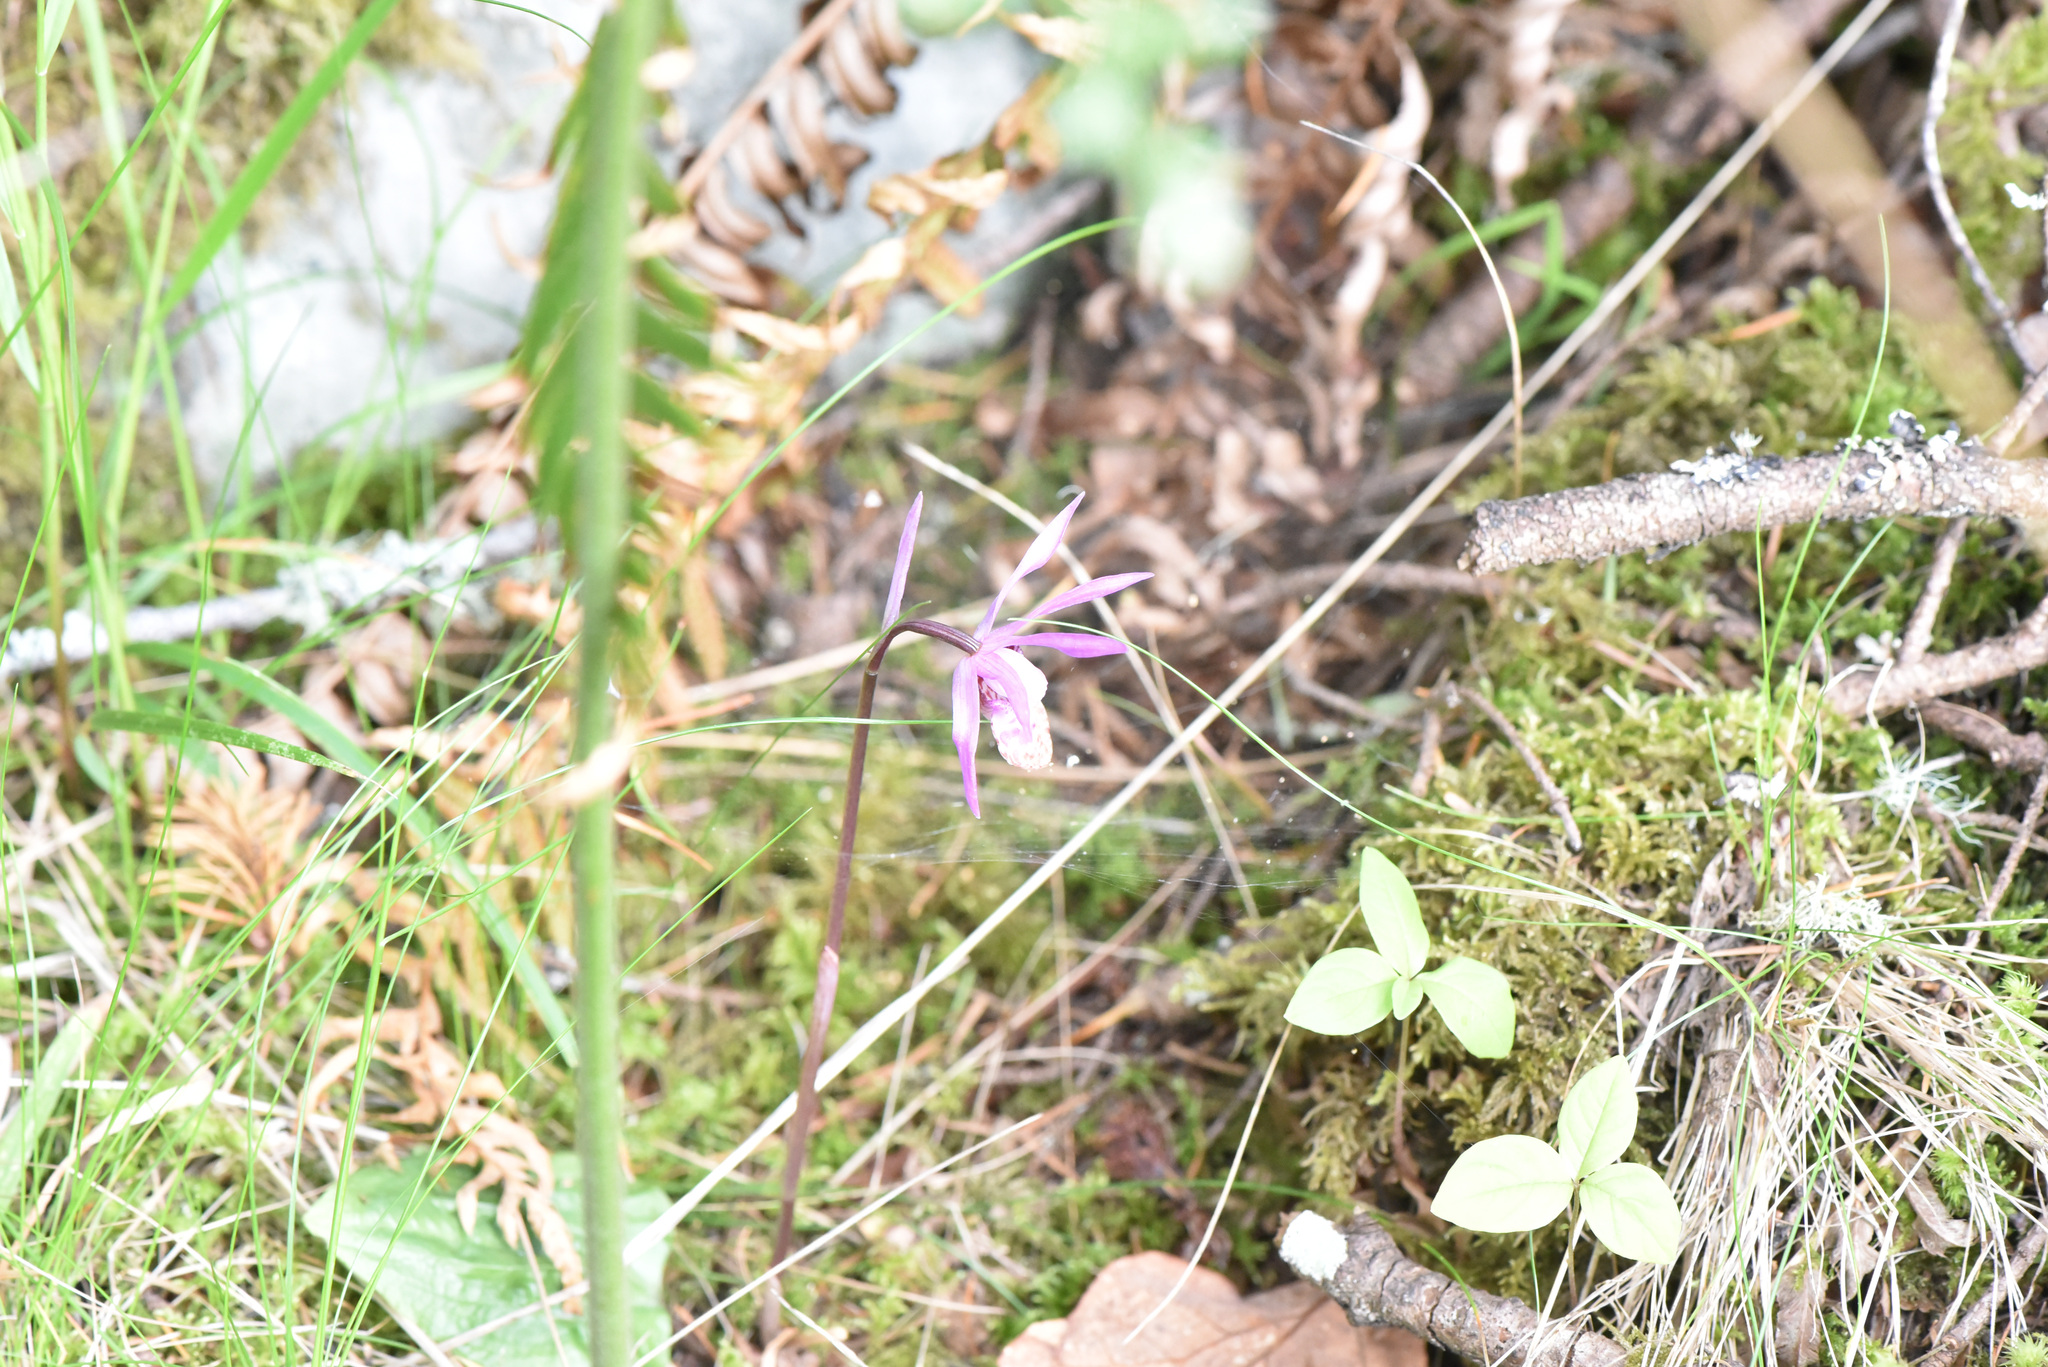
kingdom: Plantae
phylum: Tracheophyta
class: Liliopsida
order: Asparagales
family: Orchidaceae
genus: Calypso
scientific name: Calypso bulbosa
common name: Calypso
